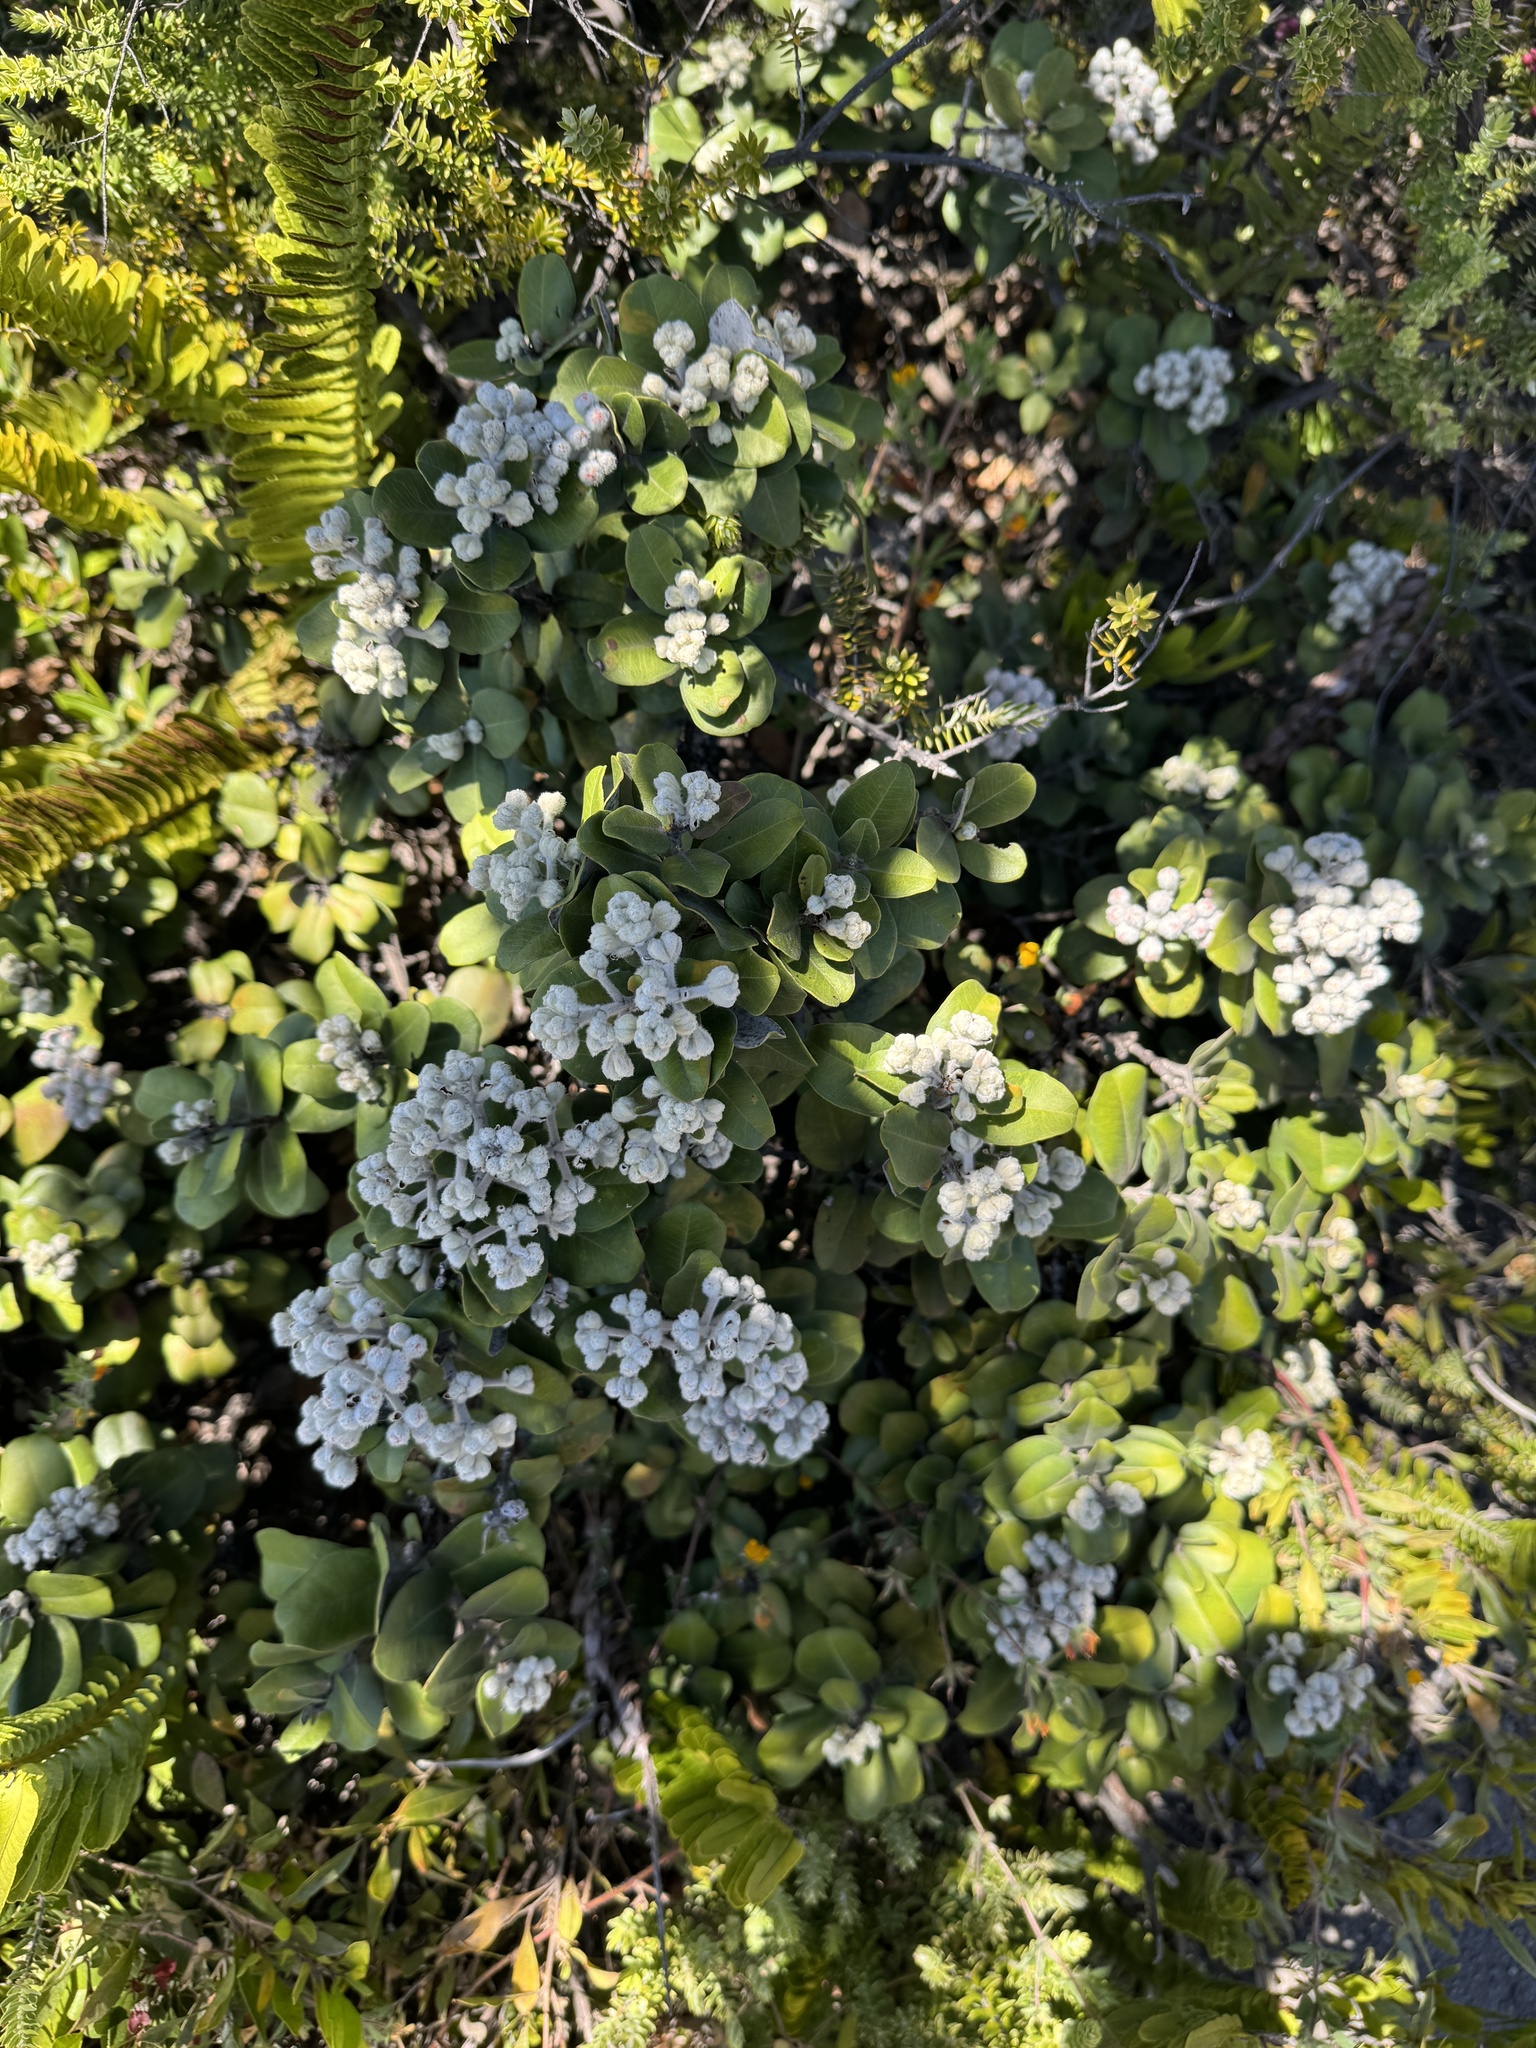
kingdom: Plantae
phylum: Tracheophyta
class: Magnoliopsida
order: Myrtales
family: Myrtaceae
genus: Metrosideros
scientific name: Metrosideros polymorpha
